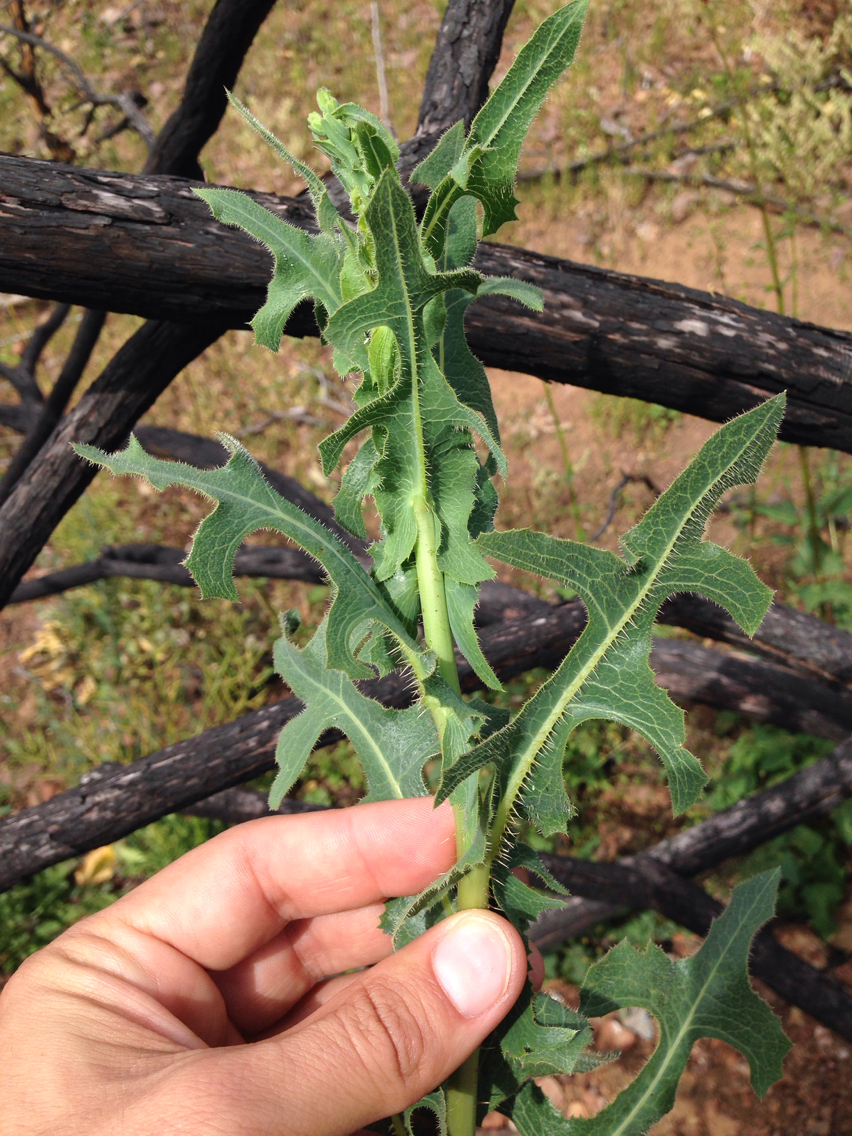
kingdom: Plantae
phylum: Tracheophyta
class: Magnoliopsida
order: Asterales
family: Asteraceae
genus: Lactuca
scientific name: Lactuca serriola
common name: Prickly lettuce
